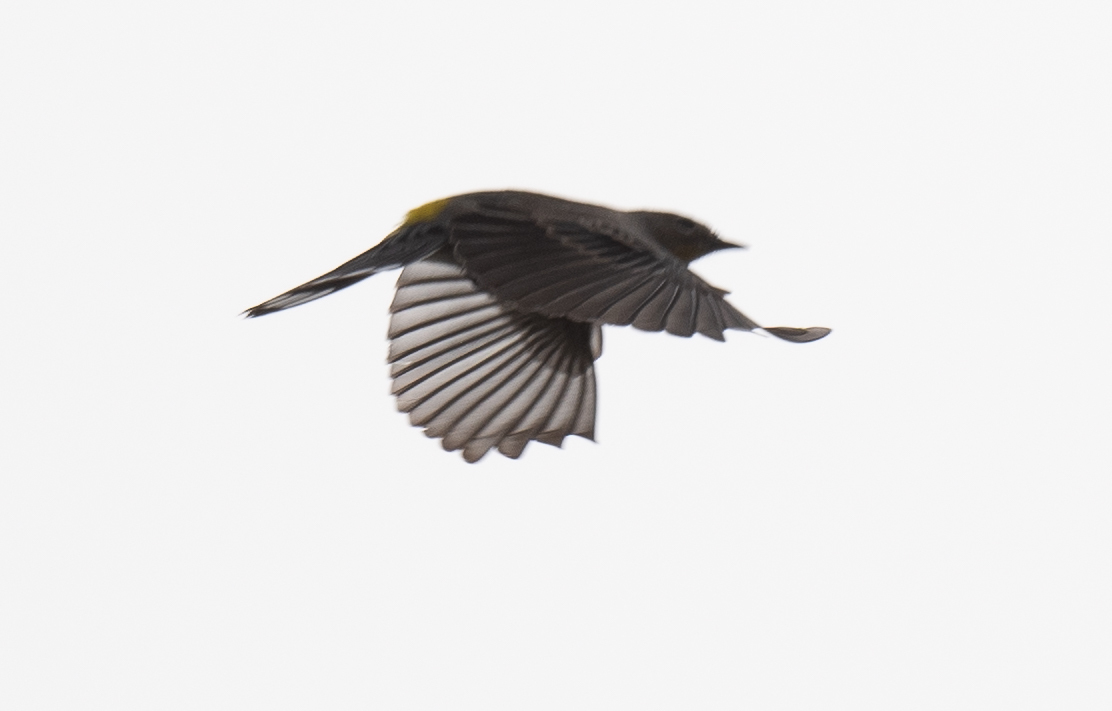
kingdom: Animalia
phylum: Chordata
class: Aves
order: Passeriformes
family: Parulidae
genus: Setophaga
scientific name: Setophaga coronata
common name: Myrtle warbler
